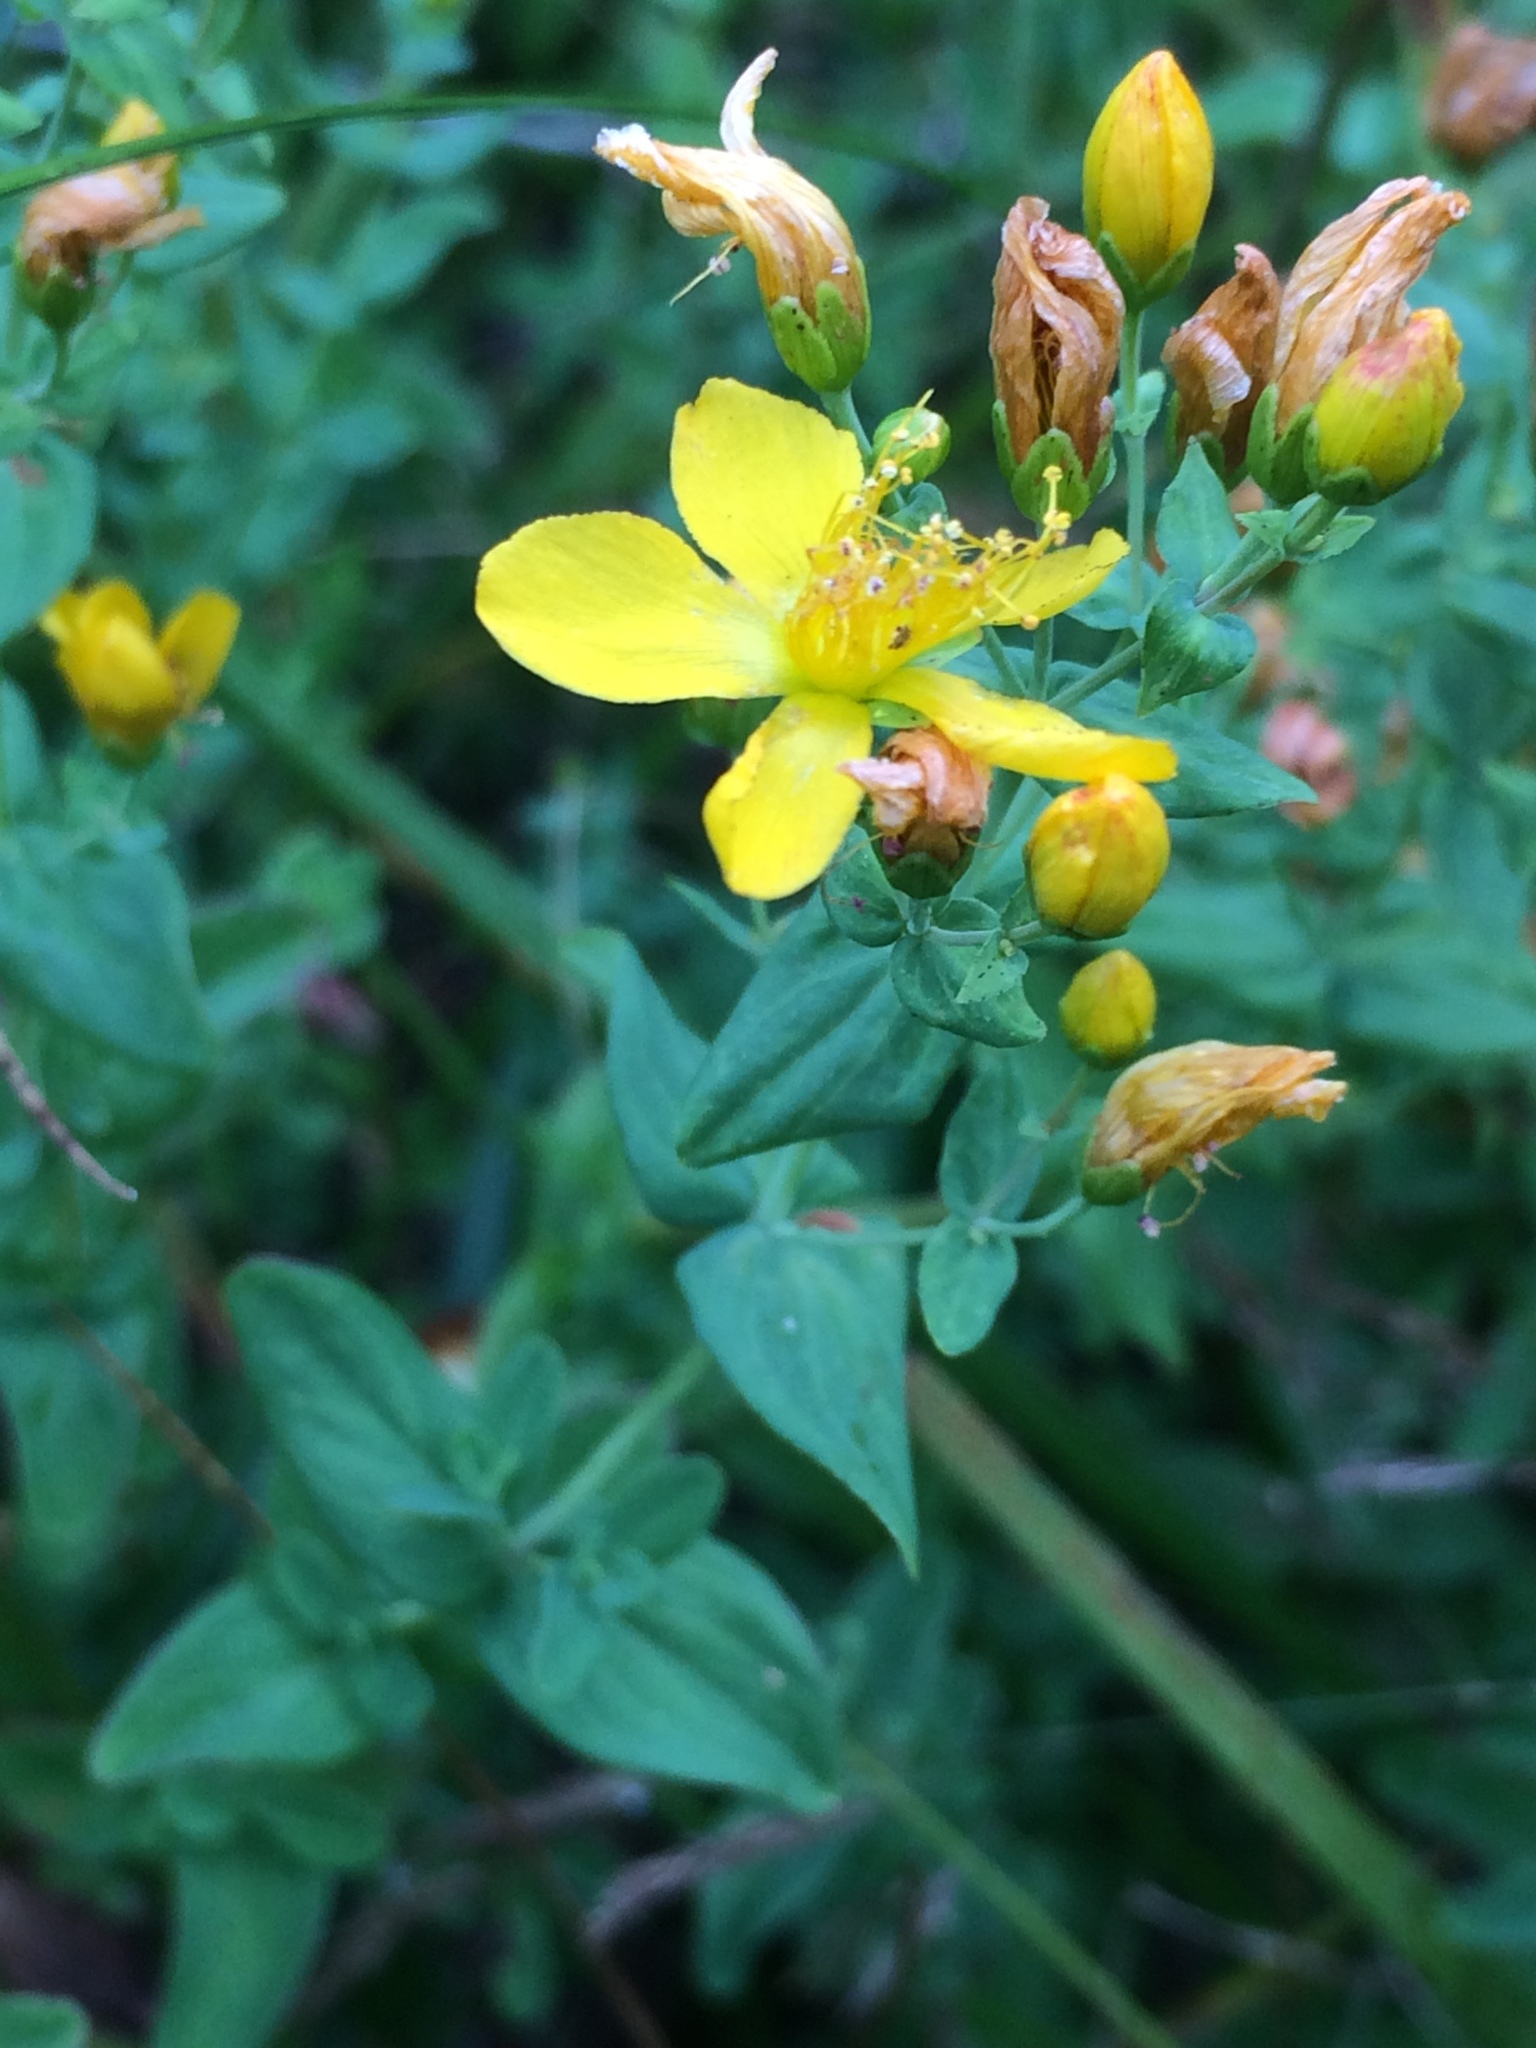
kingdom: Plantae
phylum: Tracheophyta
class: Magnoliopsida
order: Malpighiales
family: Hypericaceae
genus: Hypericum
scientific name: Hypericum scouleri
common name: Scouler's st. john's-wort
